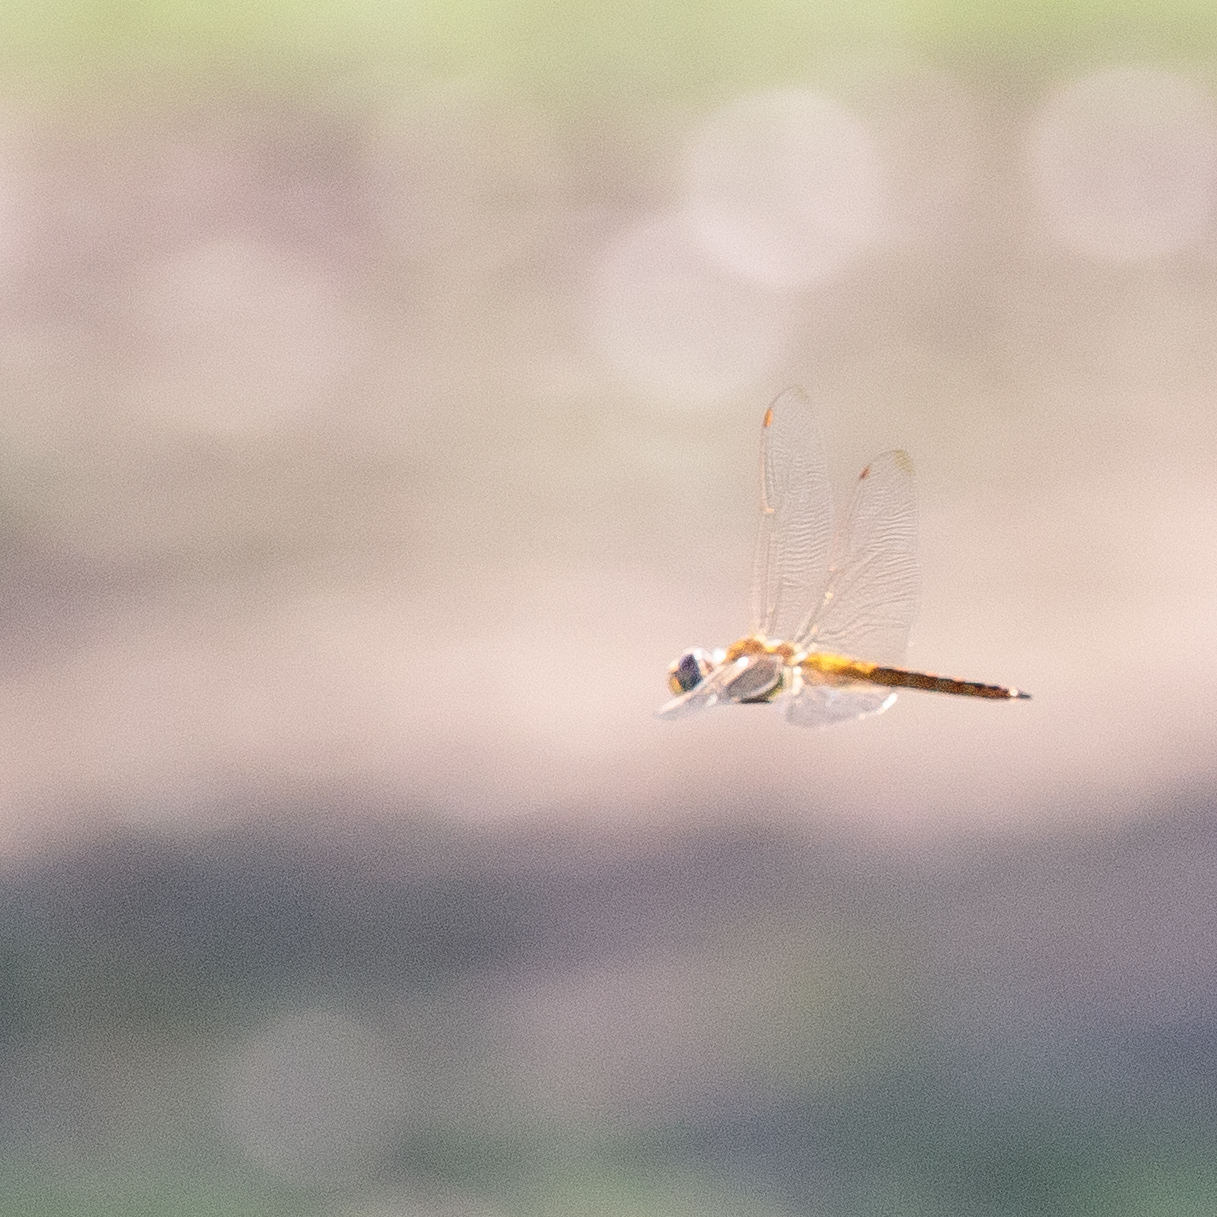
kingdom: Animalia
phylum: Arthropoda
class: Insecta
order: Odonata
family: Libellulidae
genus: Pantala
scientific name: Pantala flavescens
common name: Wandering glider
